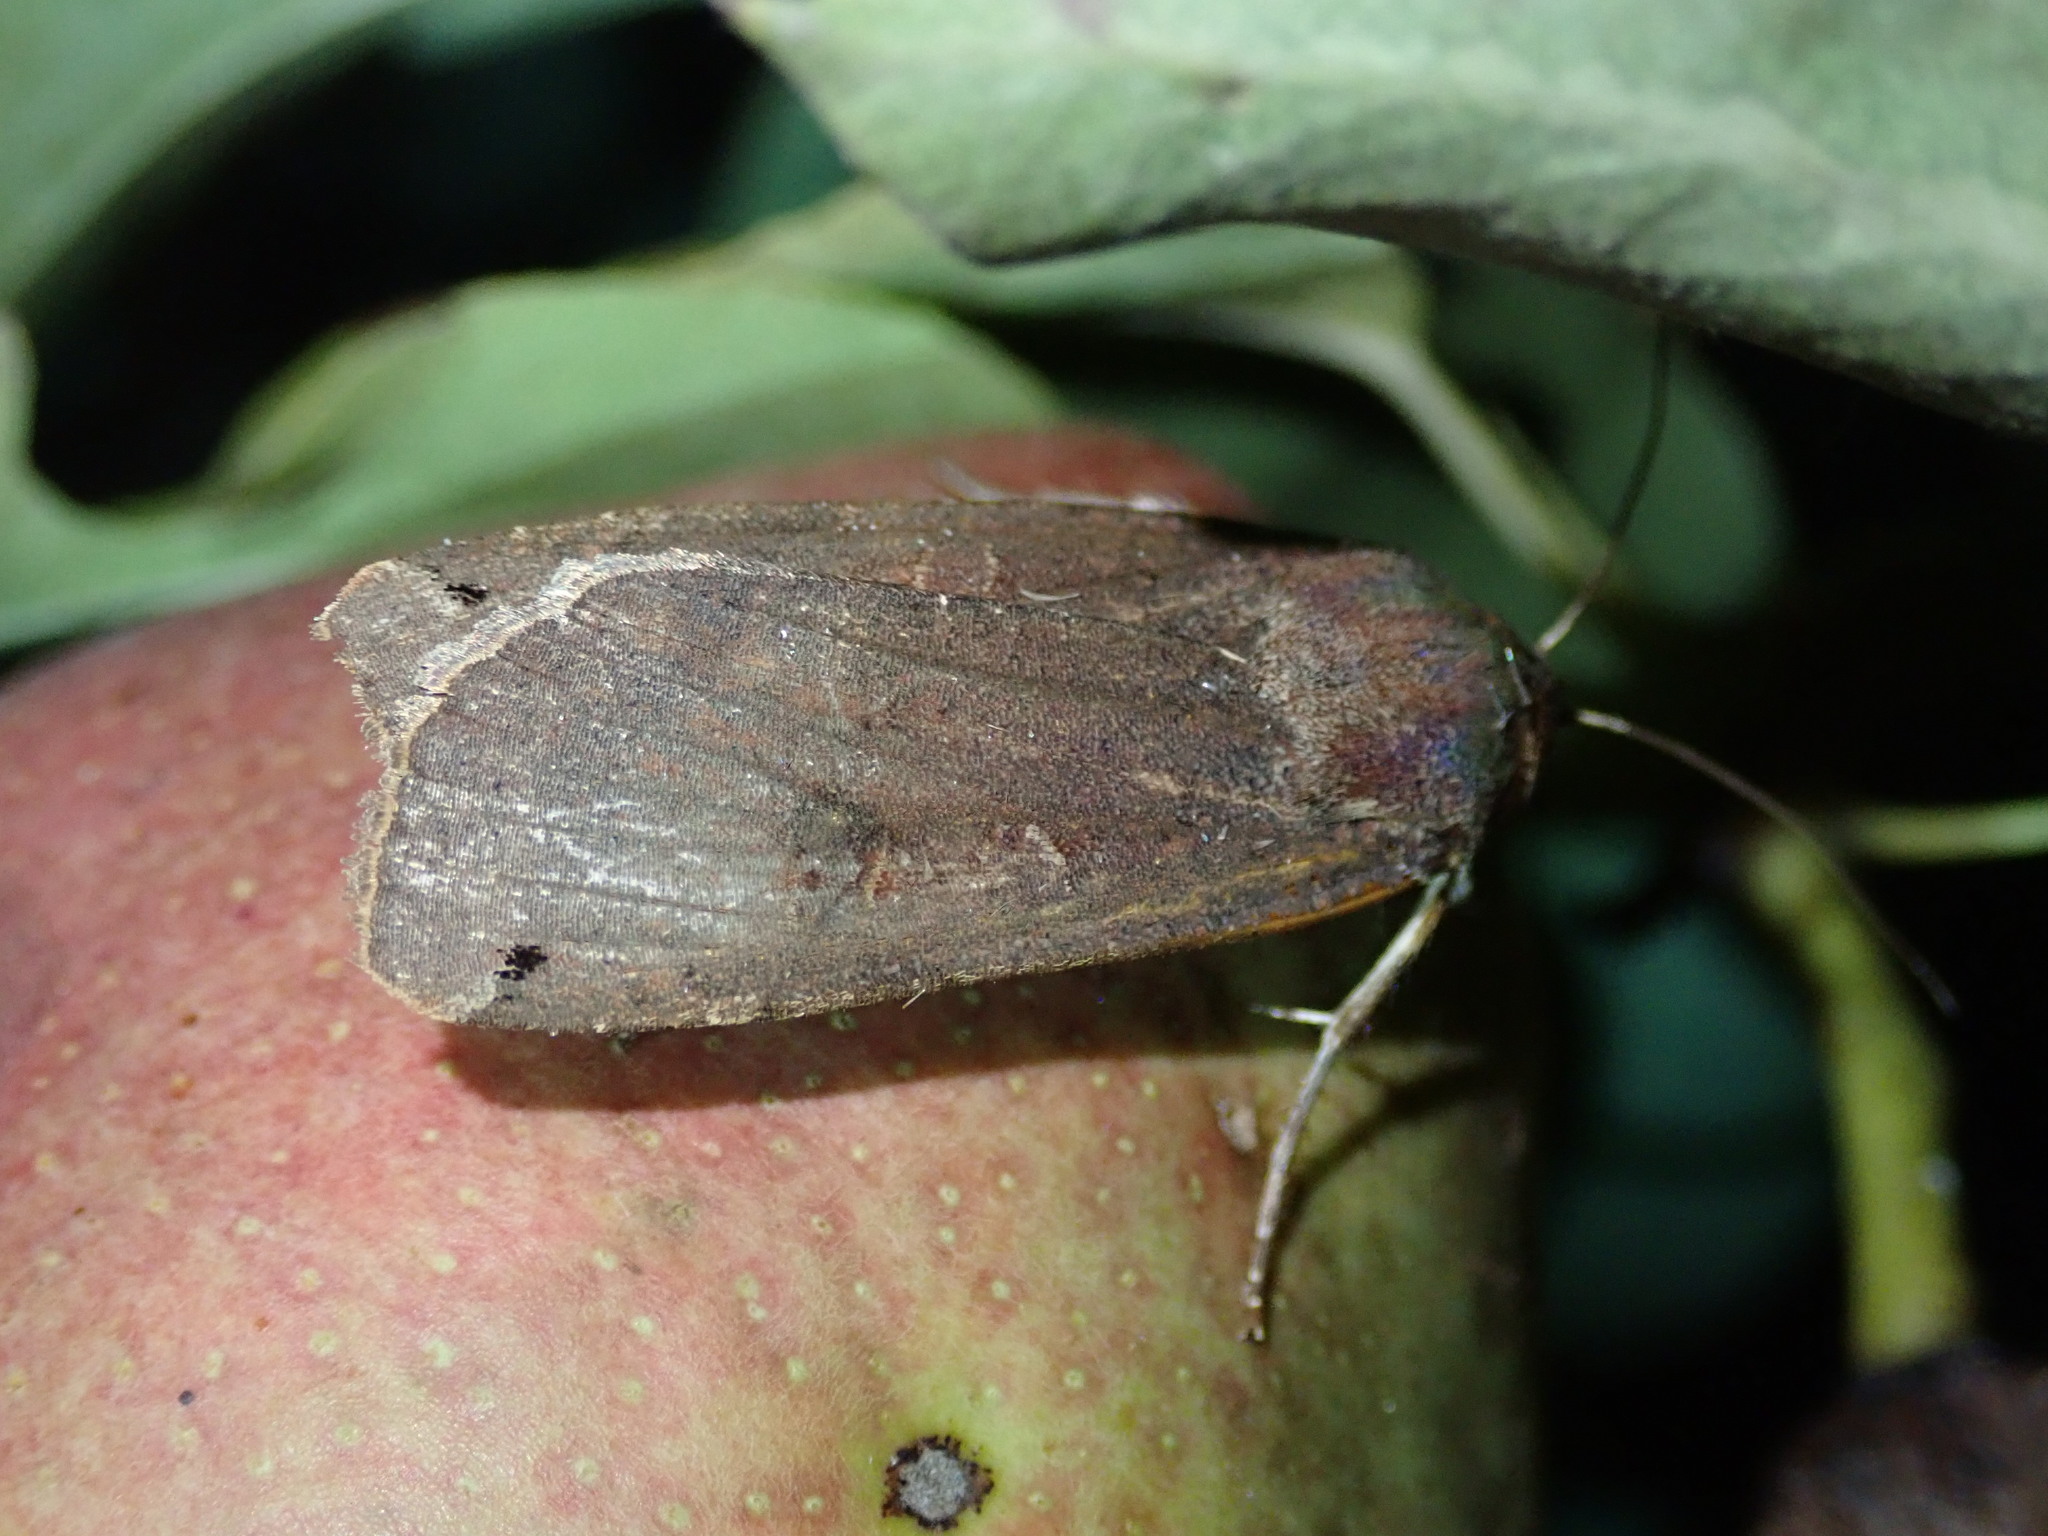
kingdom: Animalia
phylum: Arthropoda
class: Insecta
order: Lepidoptera
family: Noctuidae
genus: Noctua
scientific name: Noctua pronuba
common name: Large yellow underwing
